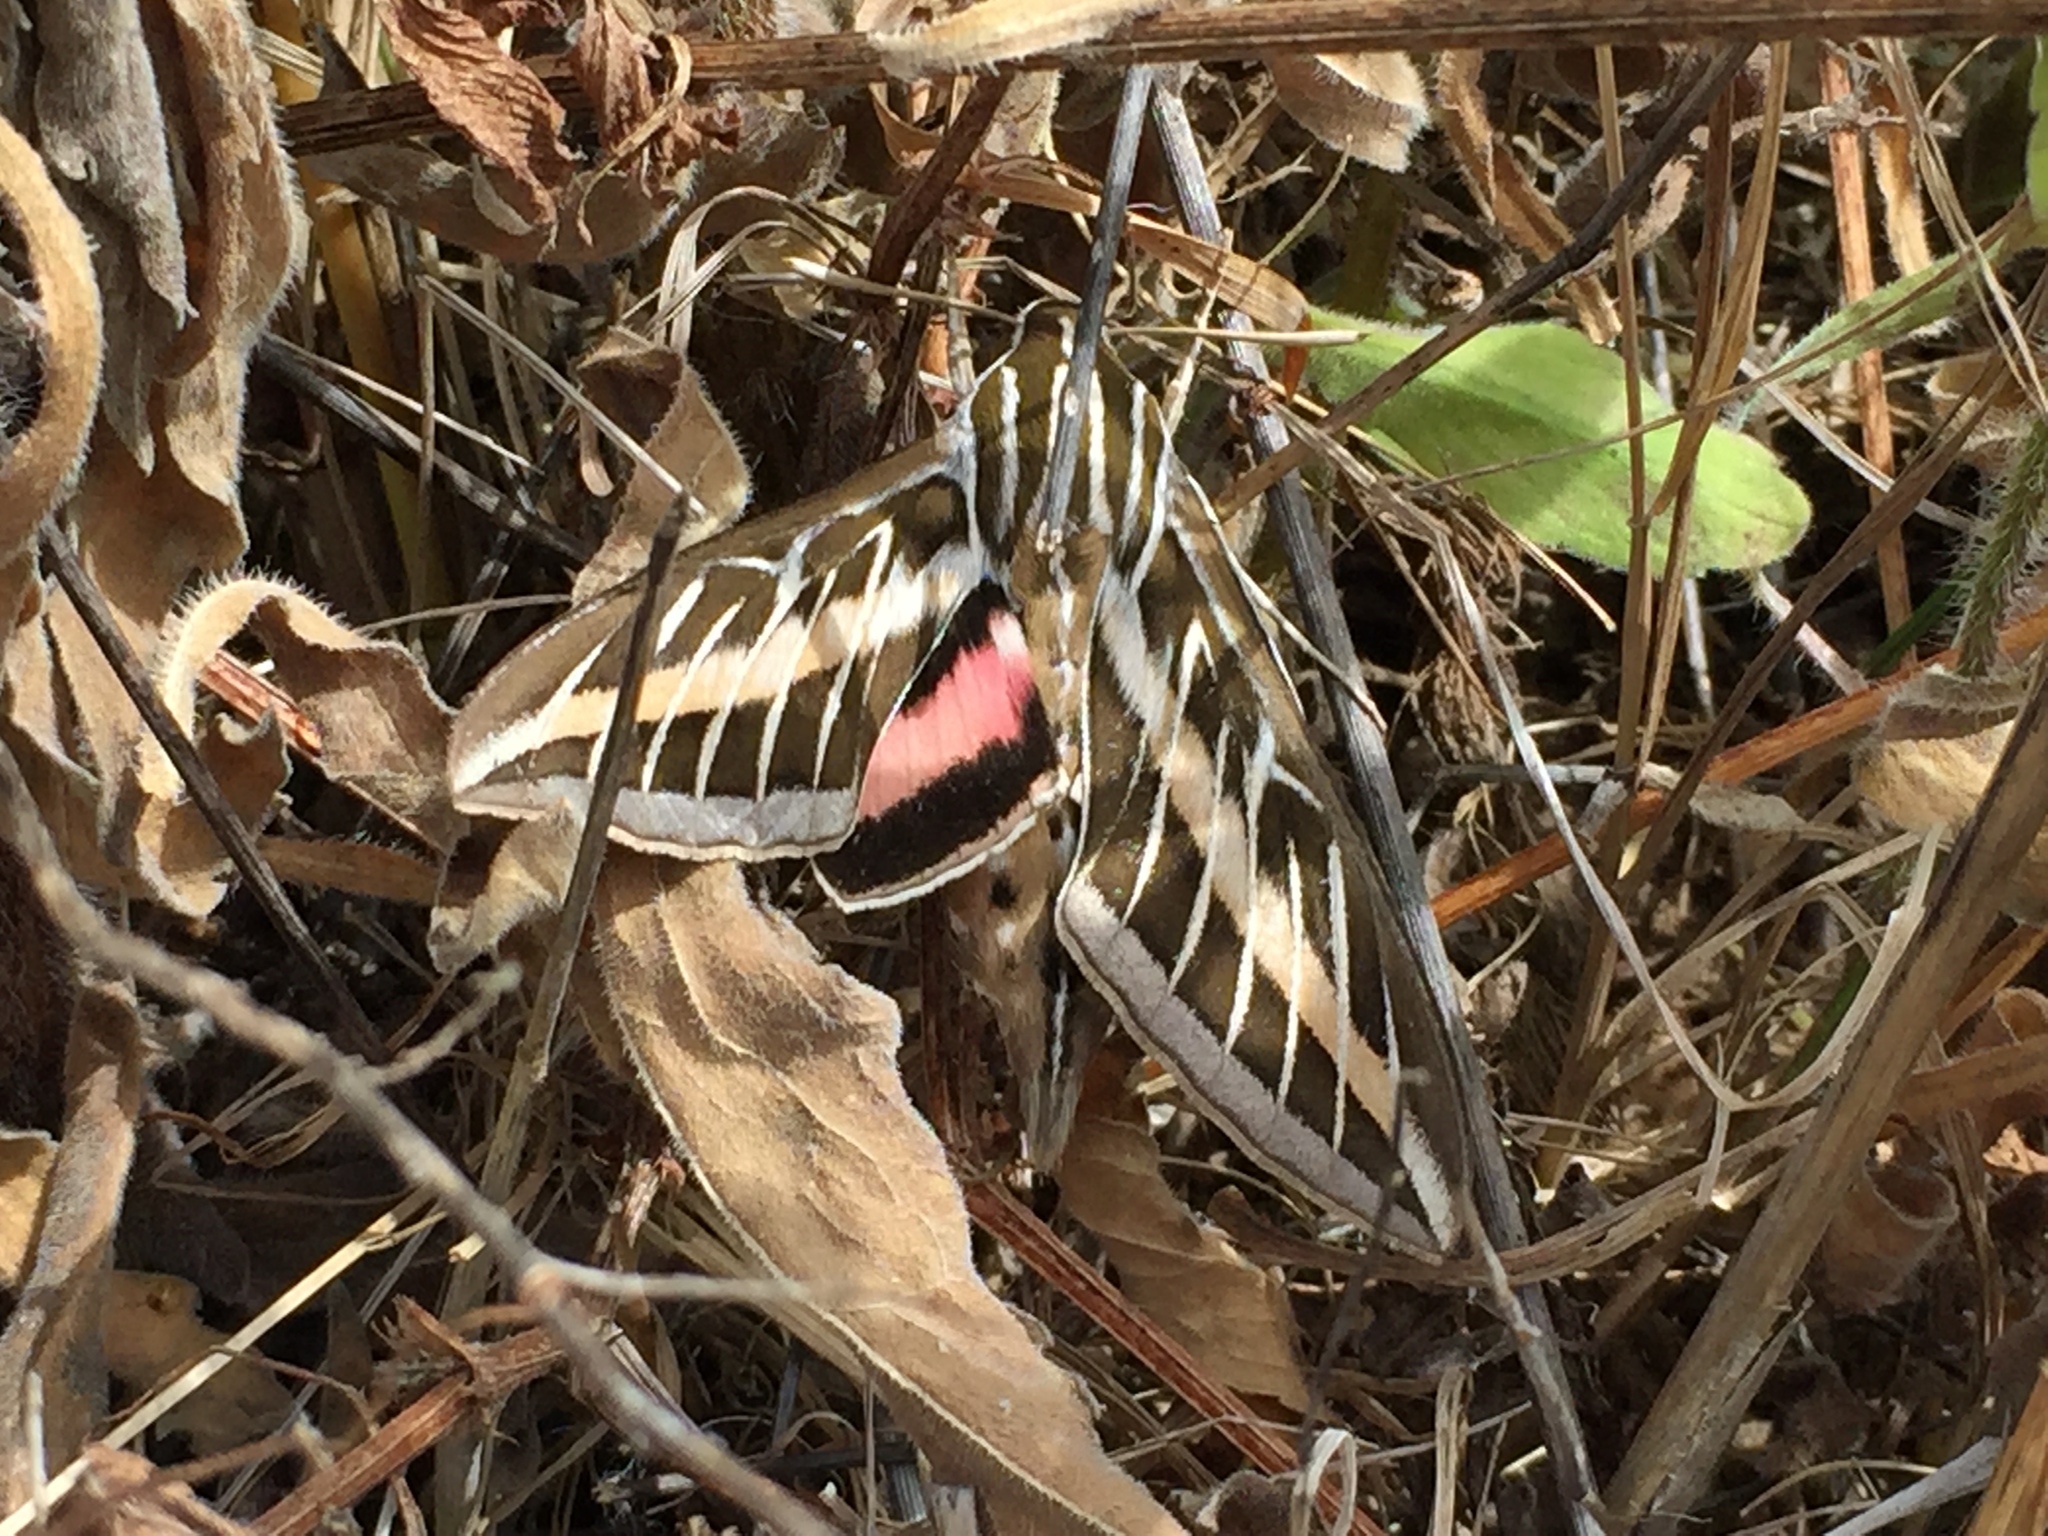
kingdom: Animalia
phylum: Arthropoda
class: Insecta
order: Lepidoptera
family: Sphingidae
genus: Hyles
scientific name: Hyles lineata
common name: White-lined sphinx
